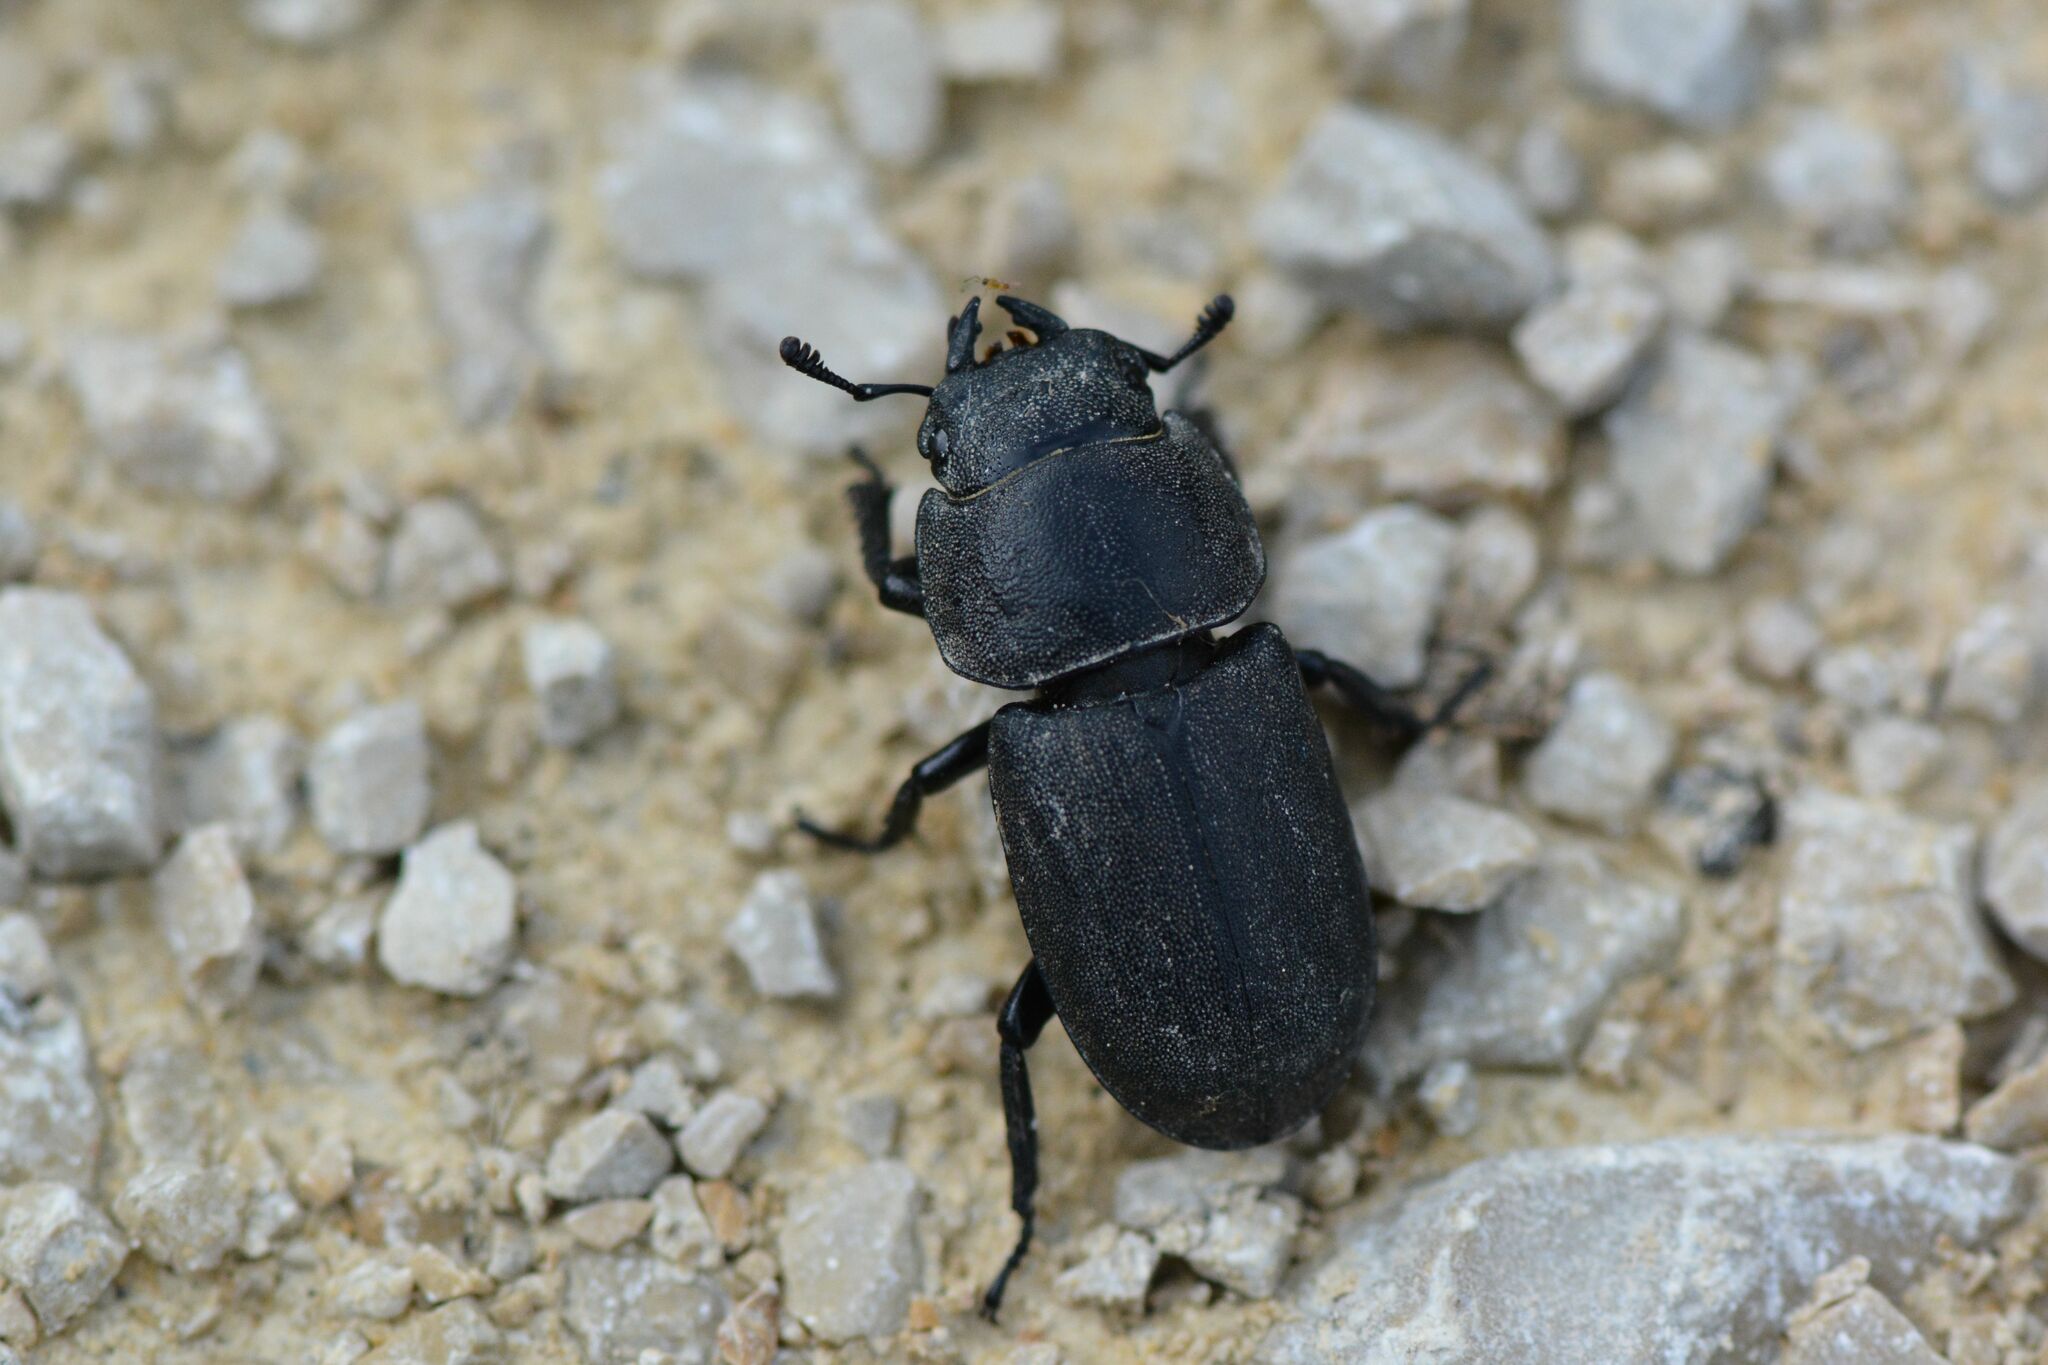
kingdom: Animalia
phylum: Arthropoda
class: Insecta
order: Coleoptera
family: Lucanidae
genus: Dorcus
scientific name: Dorcus parallelipipedus
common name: Lesser stag beetle
